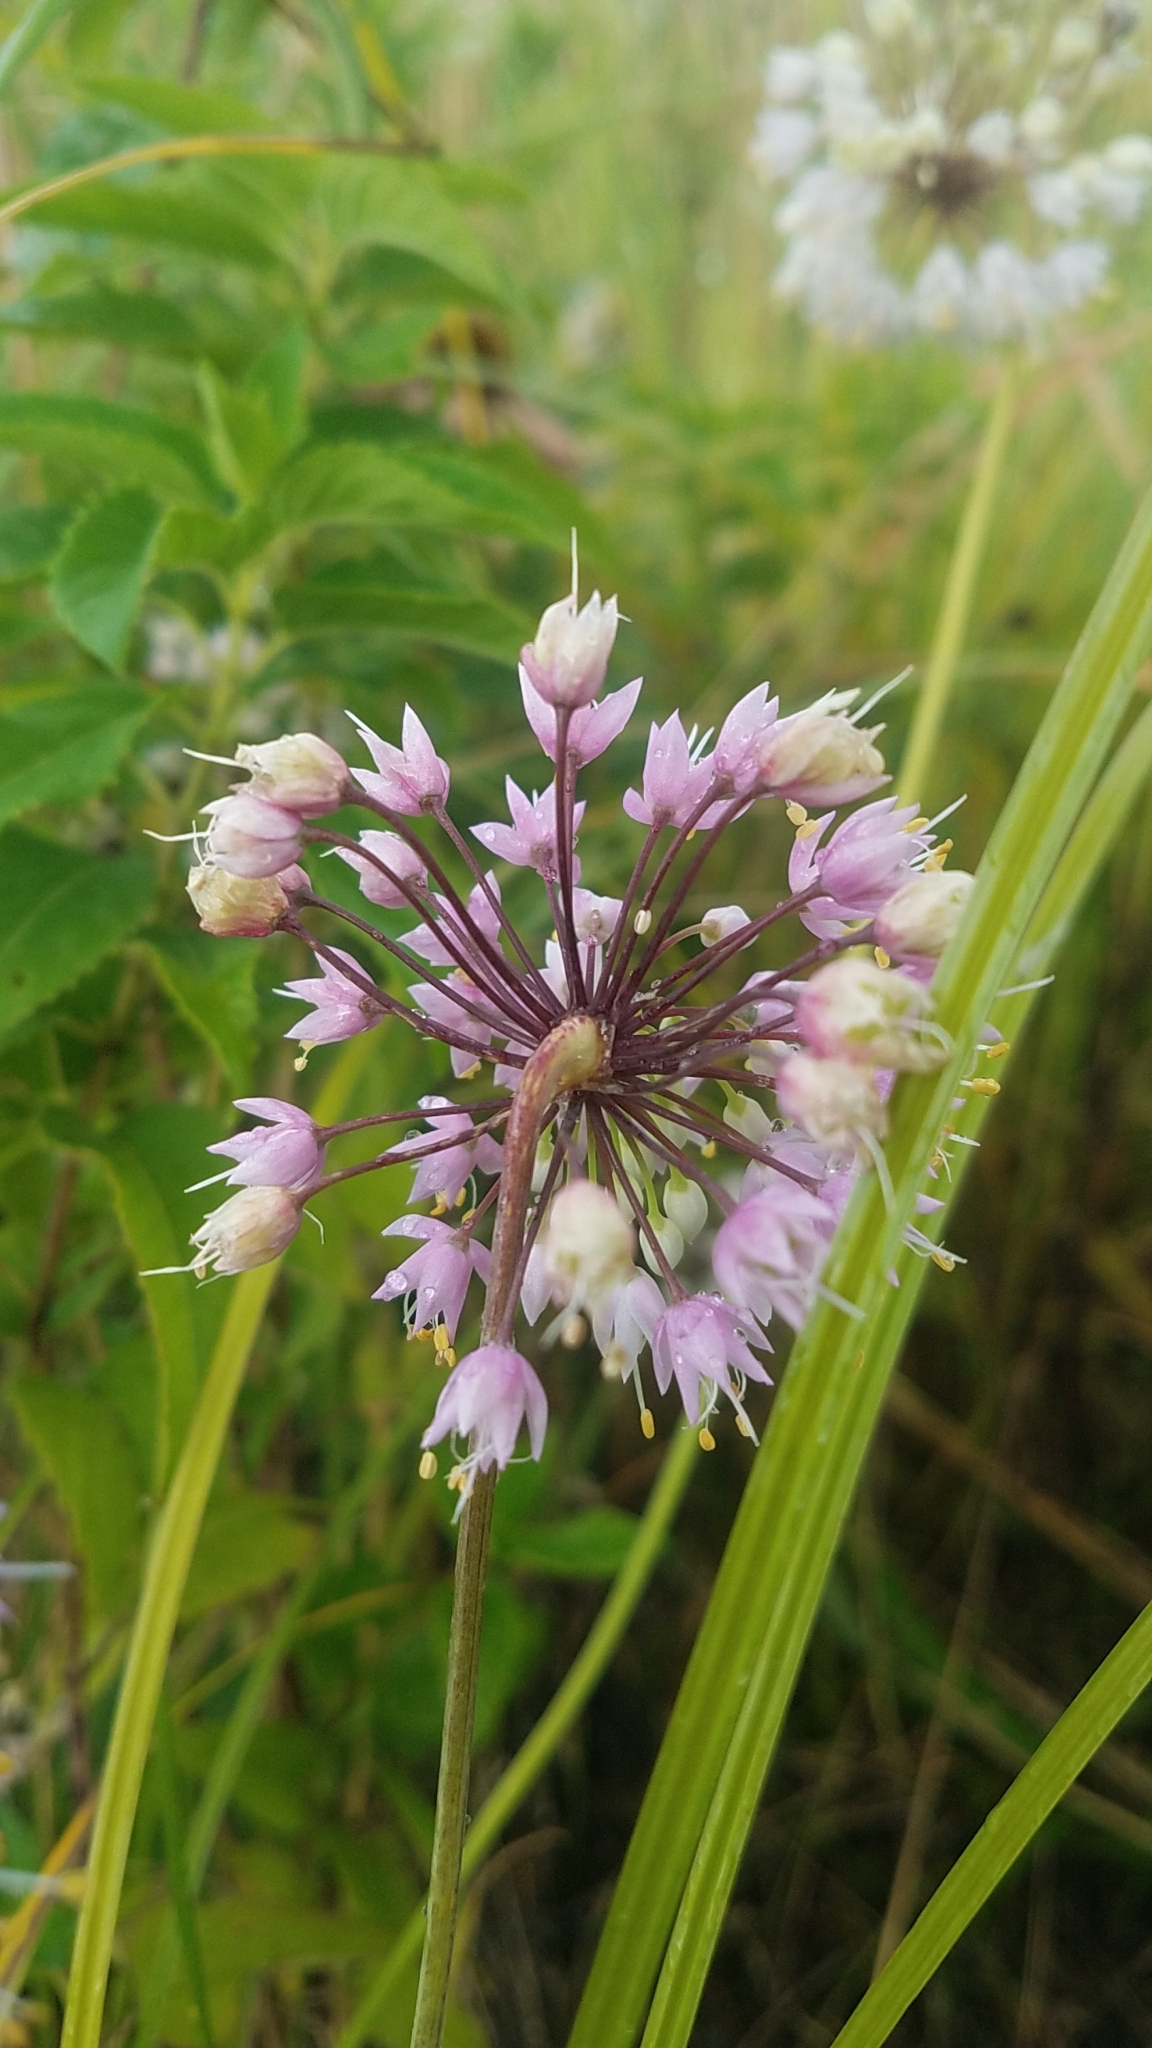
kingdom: Plantae
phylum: Tracheophyta
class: Liliopsida
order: Asparagales
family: Amaryllidaceae
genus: Allium
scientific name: Allium cernuum
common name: Nodding onion
